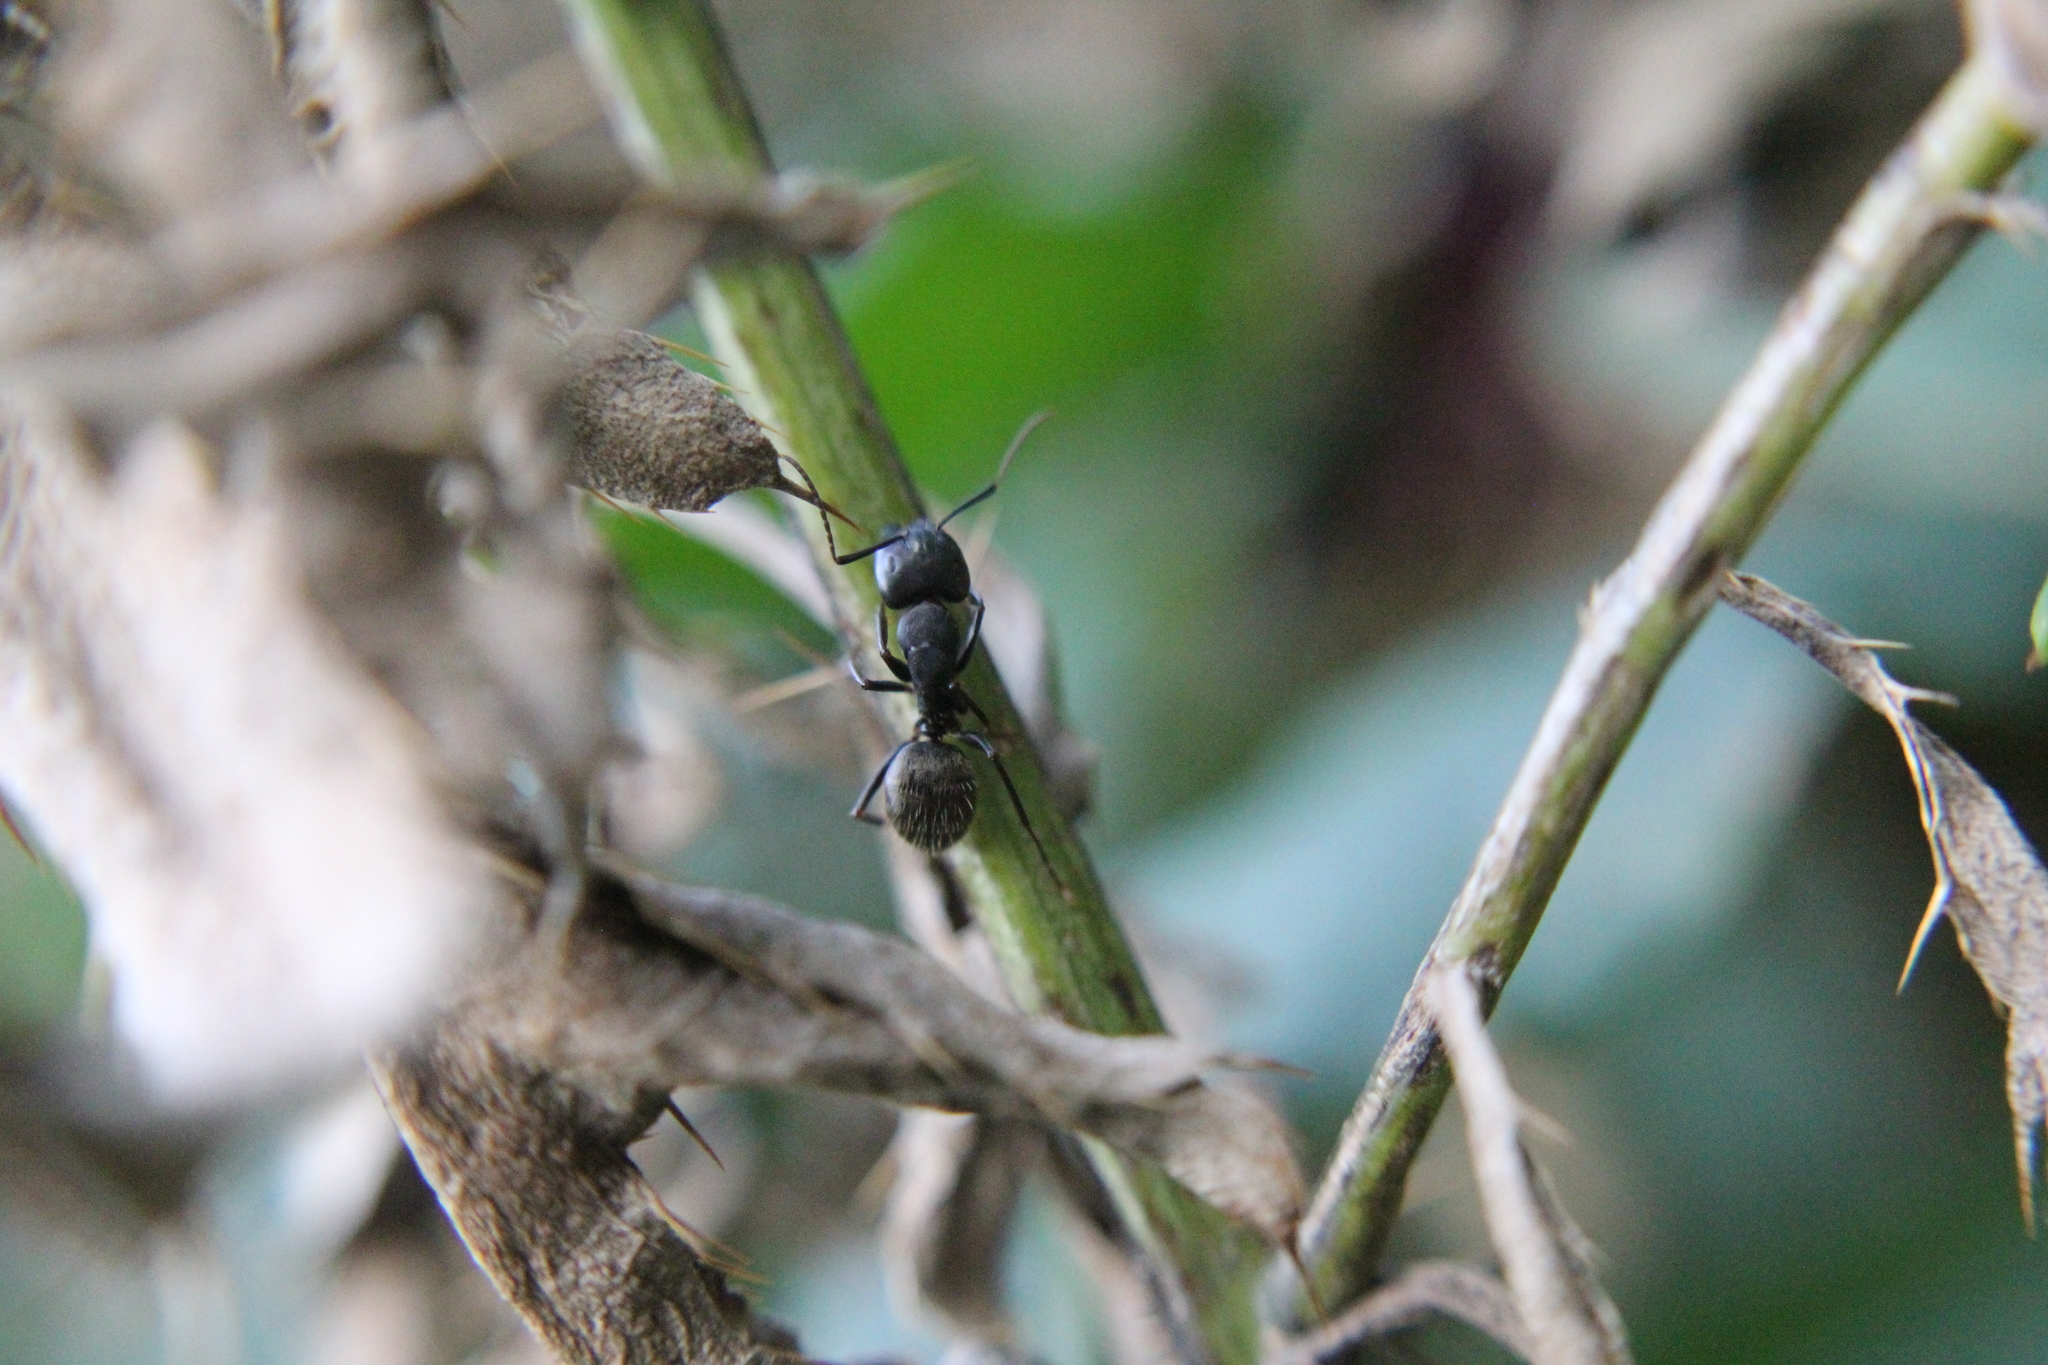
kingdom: Animalia
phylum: Arthropoda
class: Insecta
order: Hymenoptera
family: Formicidae
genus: Camponotus
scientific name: Camponotus pennsylvanicus
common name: Black carpenter ant
